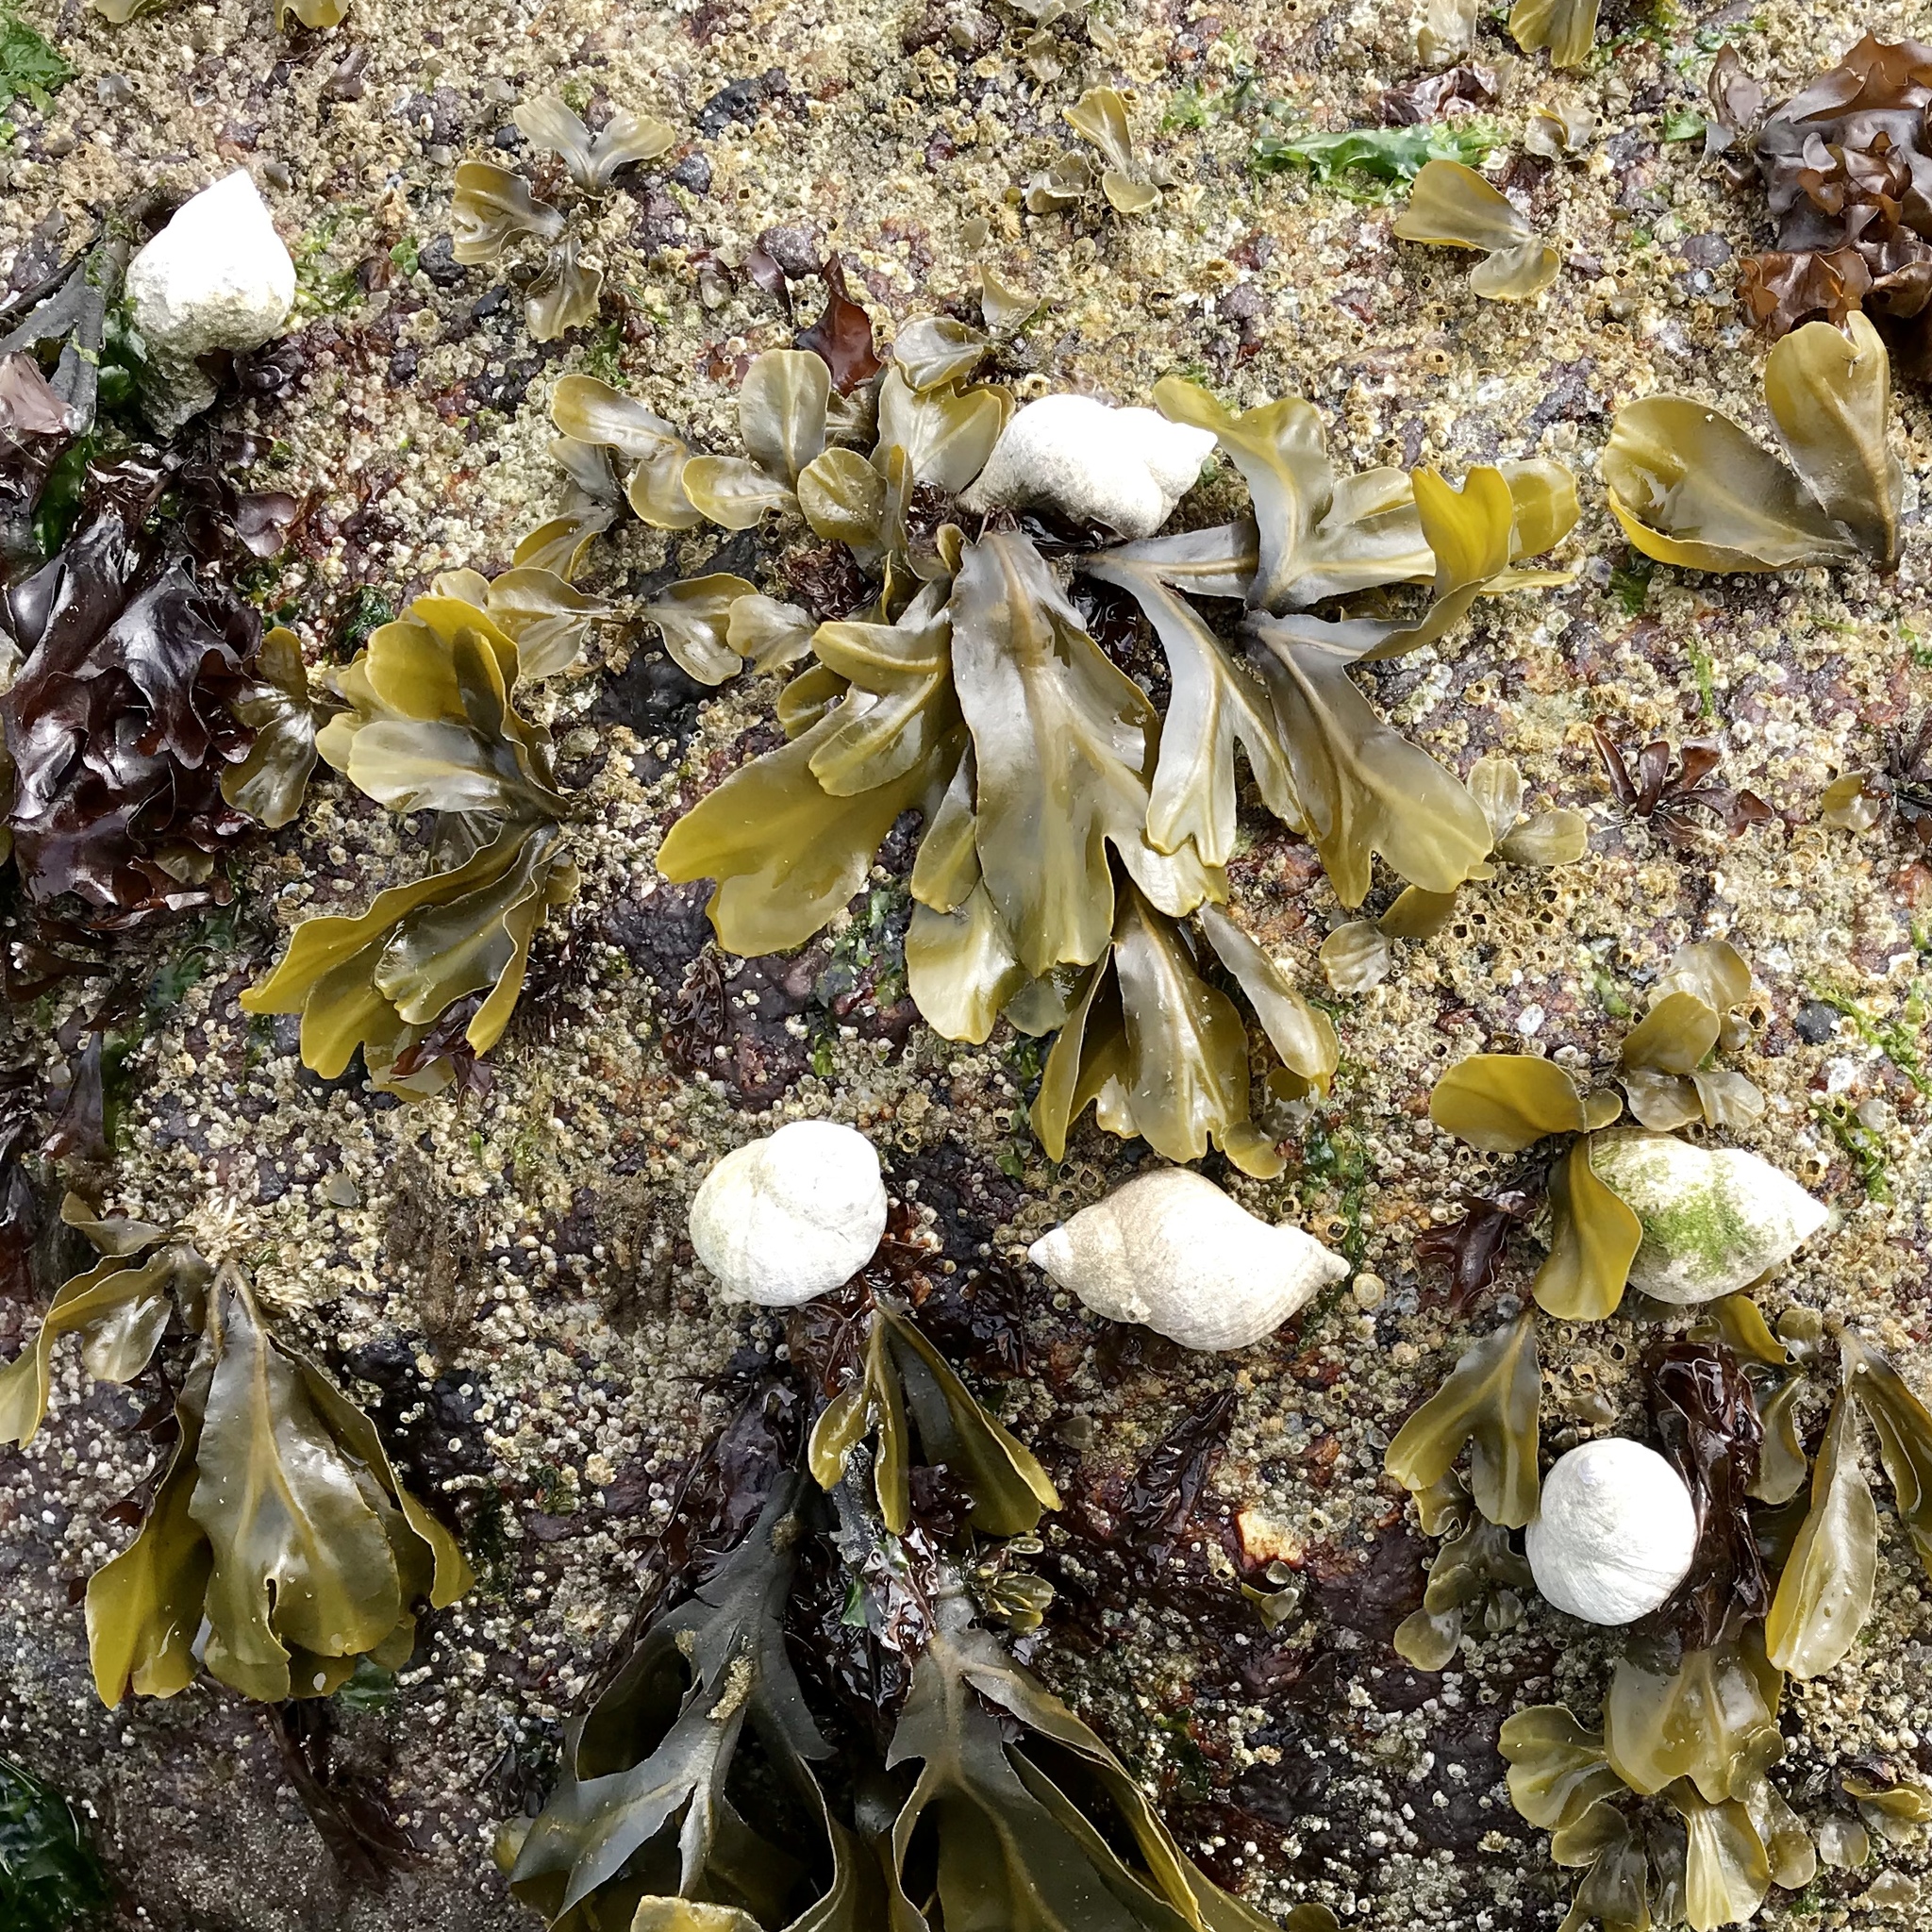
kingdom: Animalia
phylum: Mollusca
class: Gastropoda
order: Neogastropoda
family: Muricidae
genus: Nucella
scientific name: Nucella lamellosa
